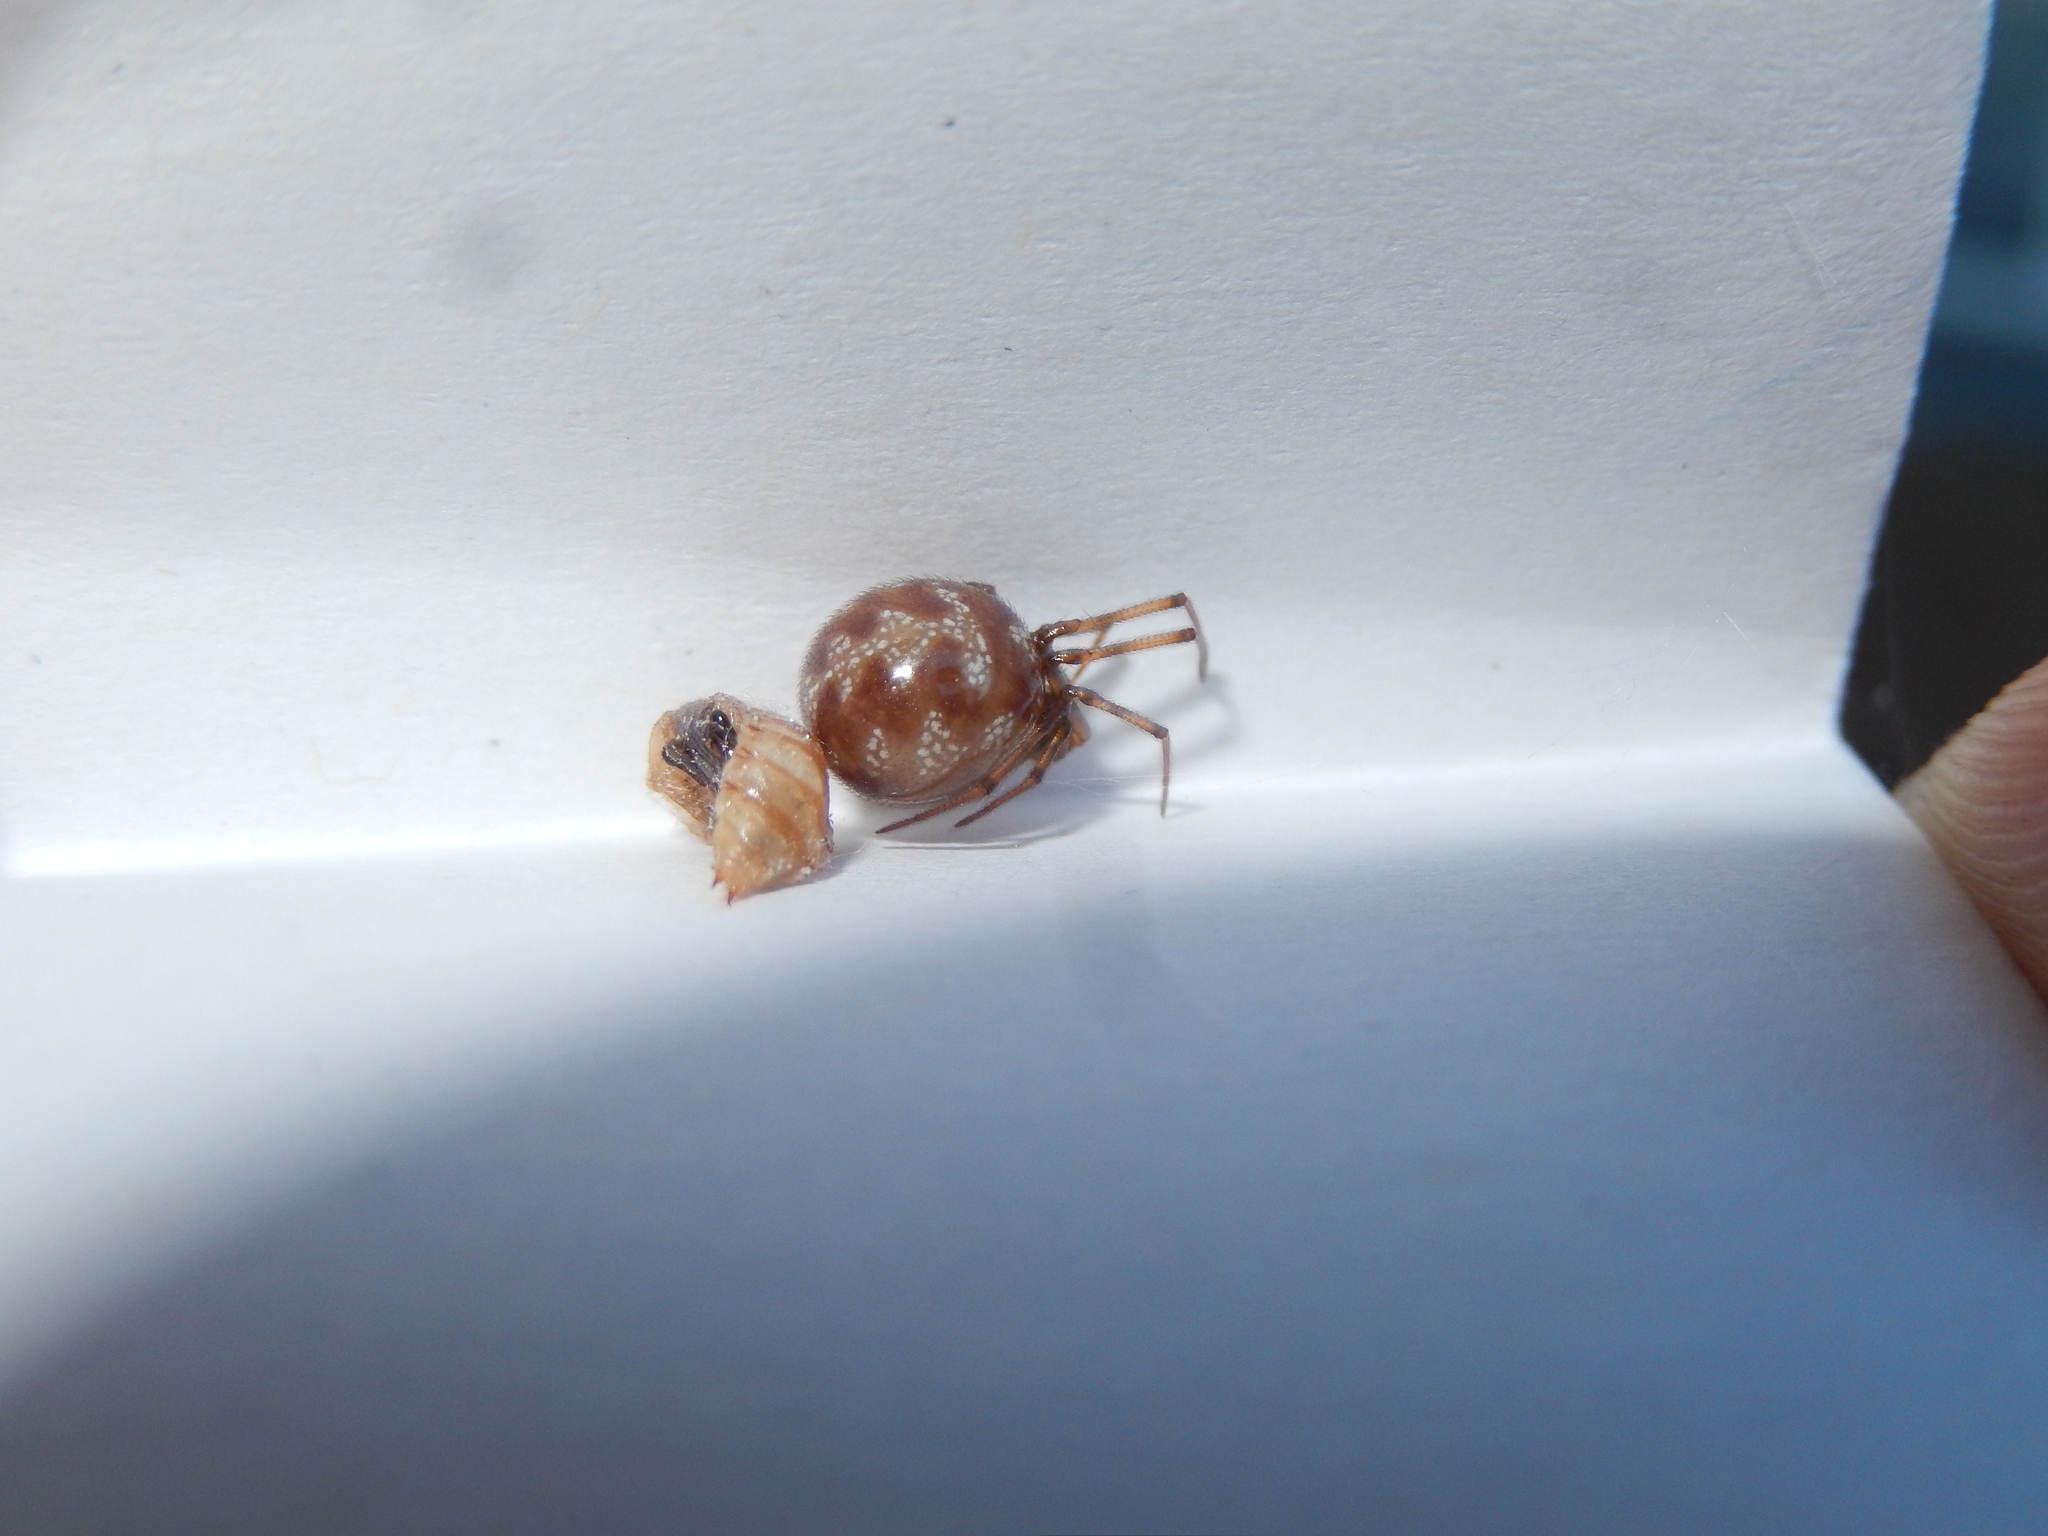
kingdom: Animalia
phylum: Arthropoda
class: Arachnida
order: Araneae
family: Theridiidae
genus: Steatoda
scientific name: Steatoda triangulosa
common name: Triangulate bud spider
